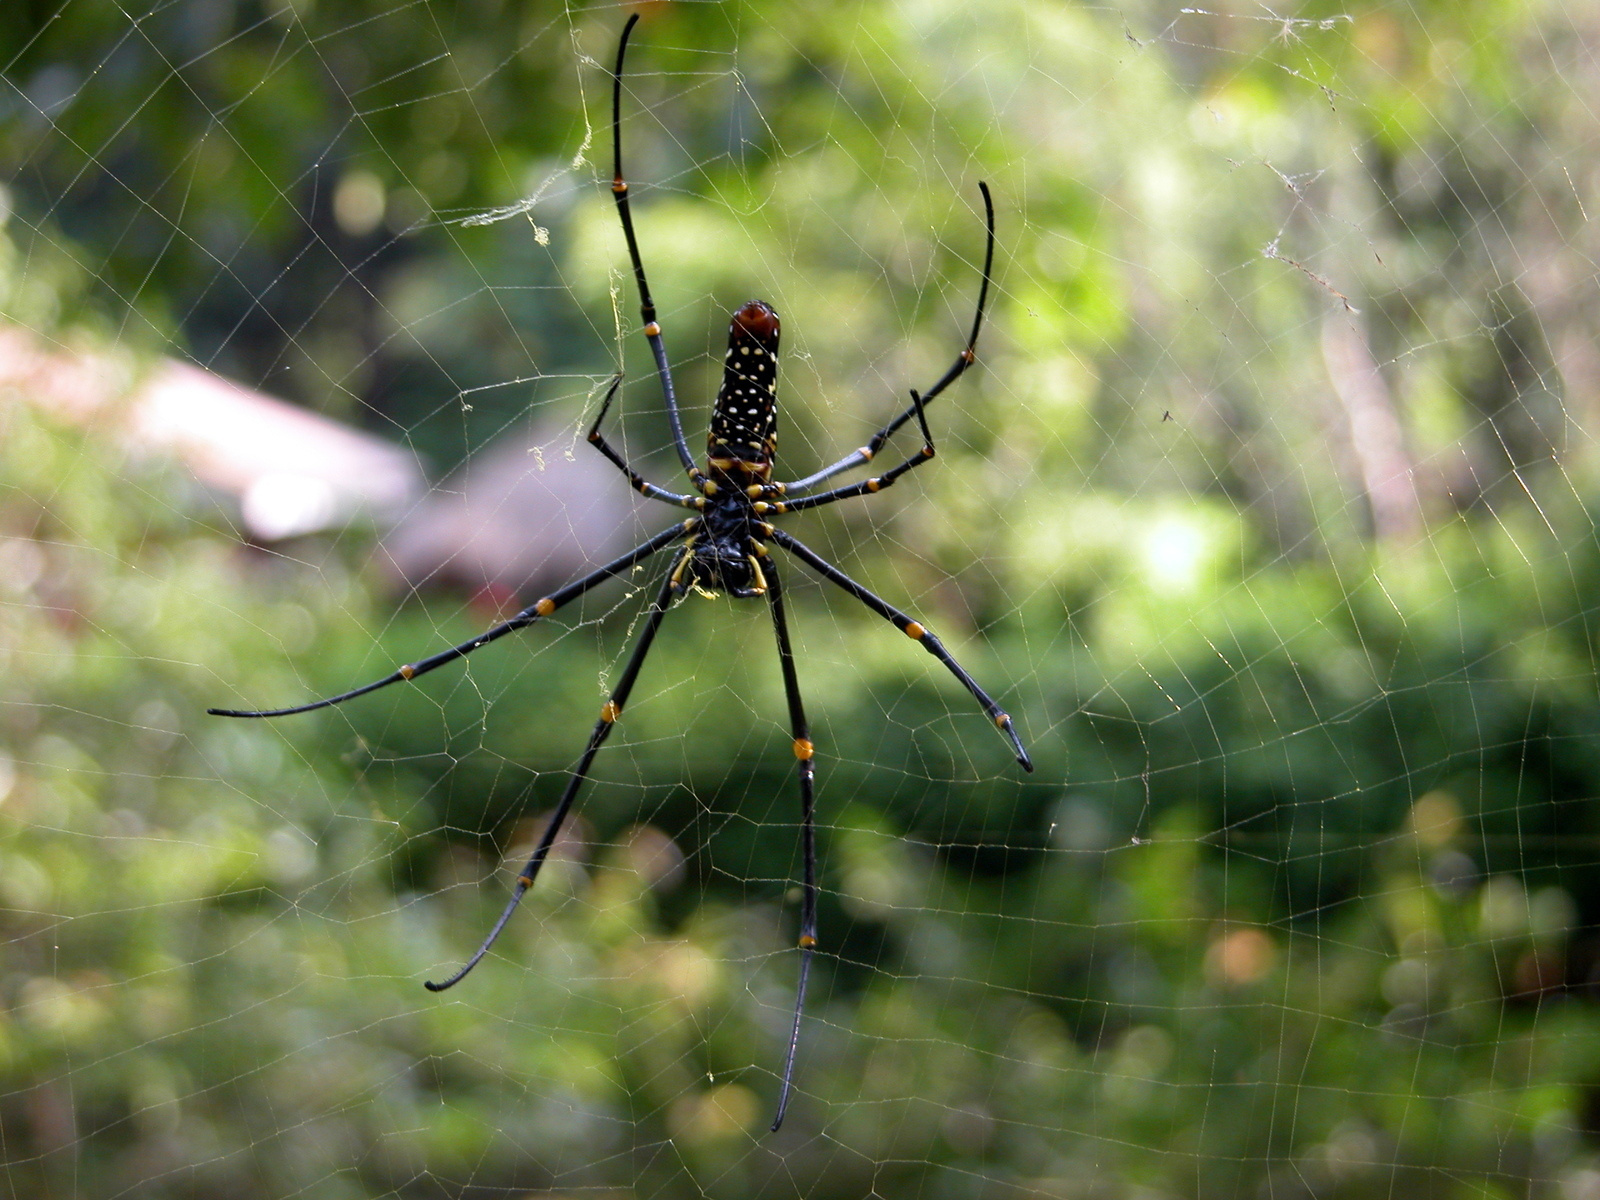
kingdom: Animalia
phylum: Arthropoda
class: Arachnida
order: Araneae
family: Araneidae
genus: Nephila
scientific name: Nephila pilipes
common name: Giant golden orb weaver
